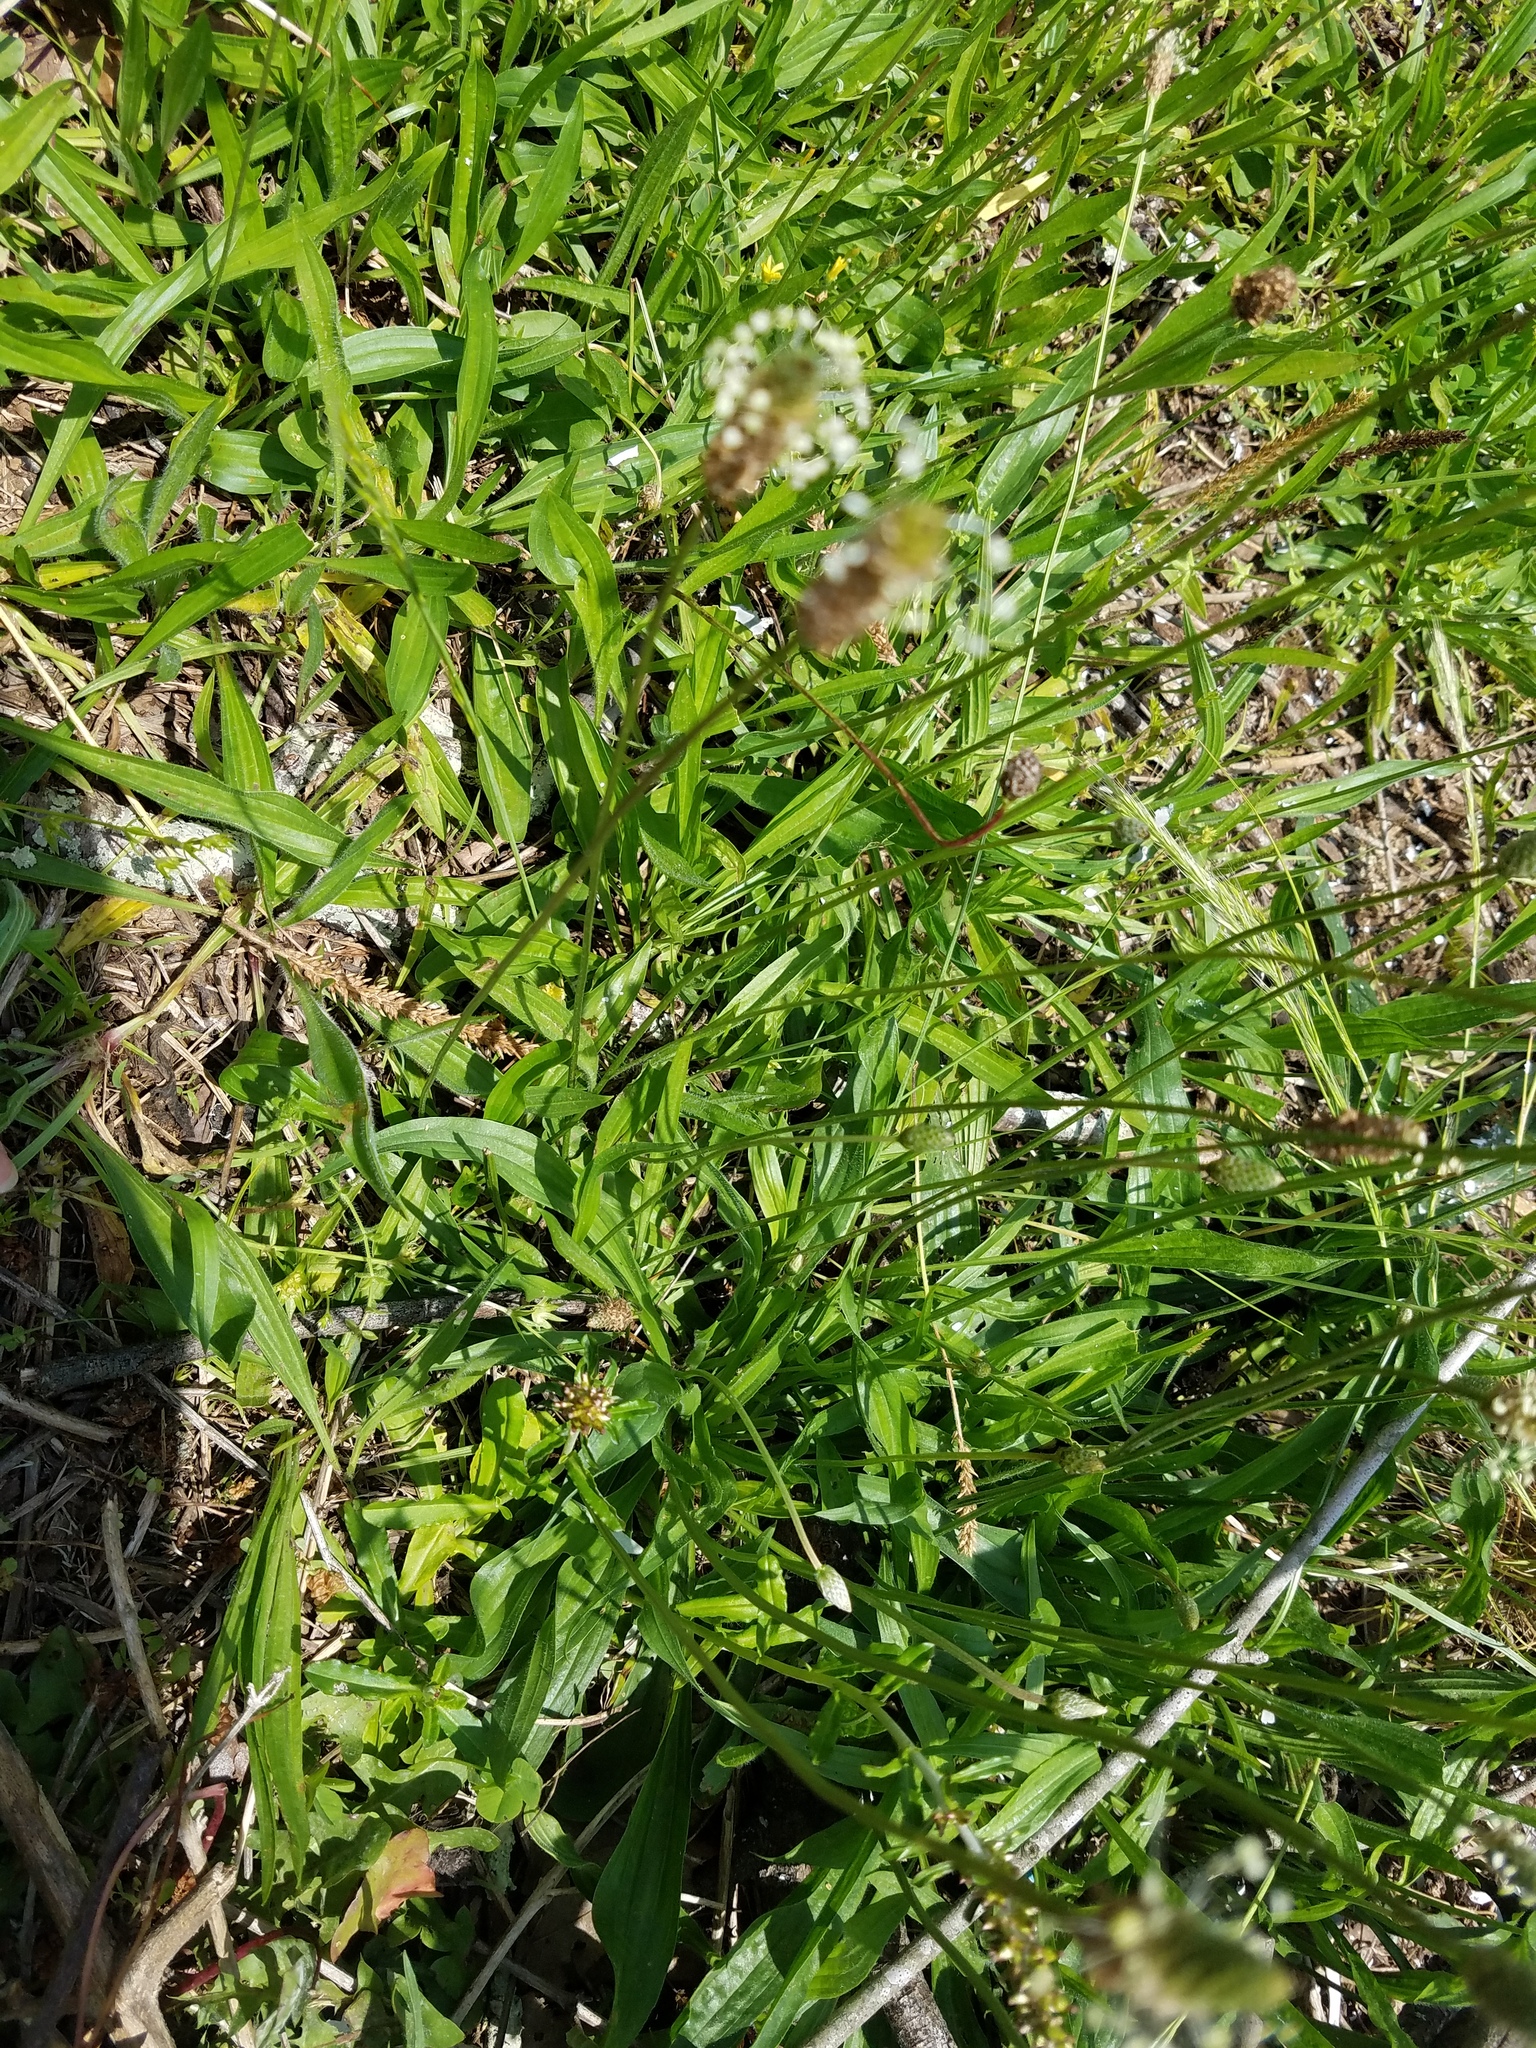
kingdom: Plantae
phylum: Tracheophyta
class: Magnoliopsida
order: Lamiales
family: Plantaginaceae
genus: Plantago
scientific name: Plantago lanceolata
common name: Ribwort plantain
